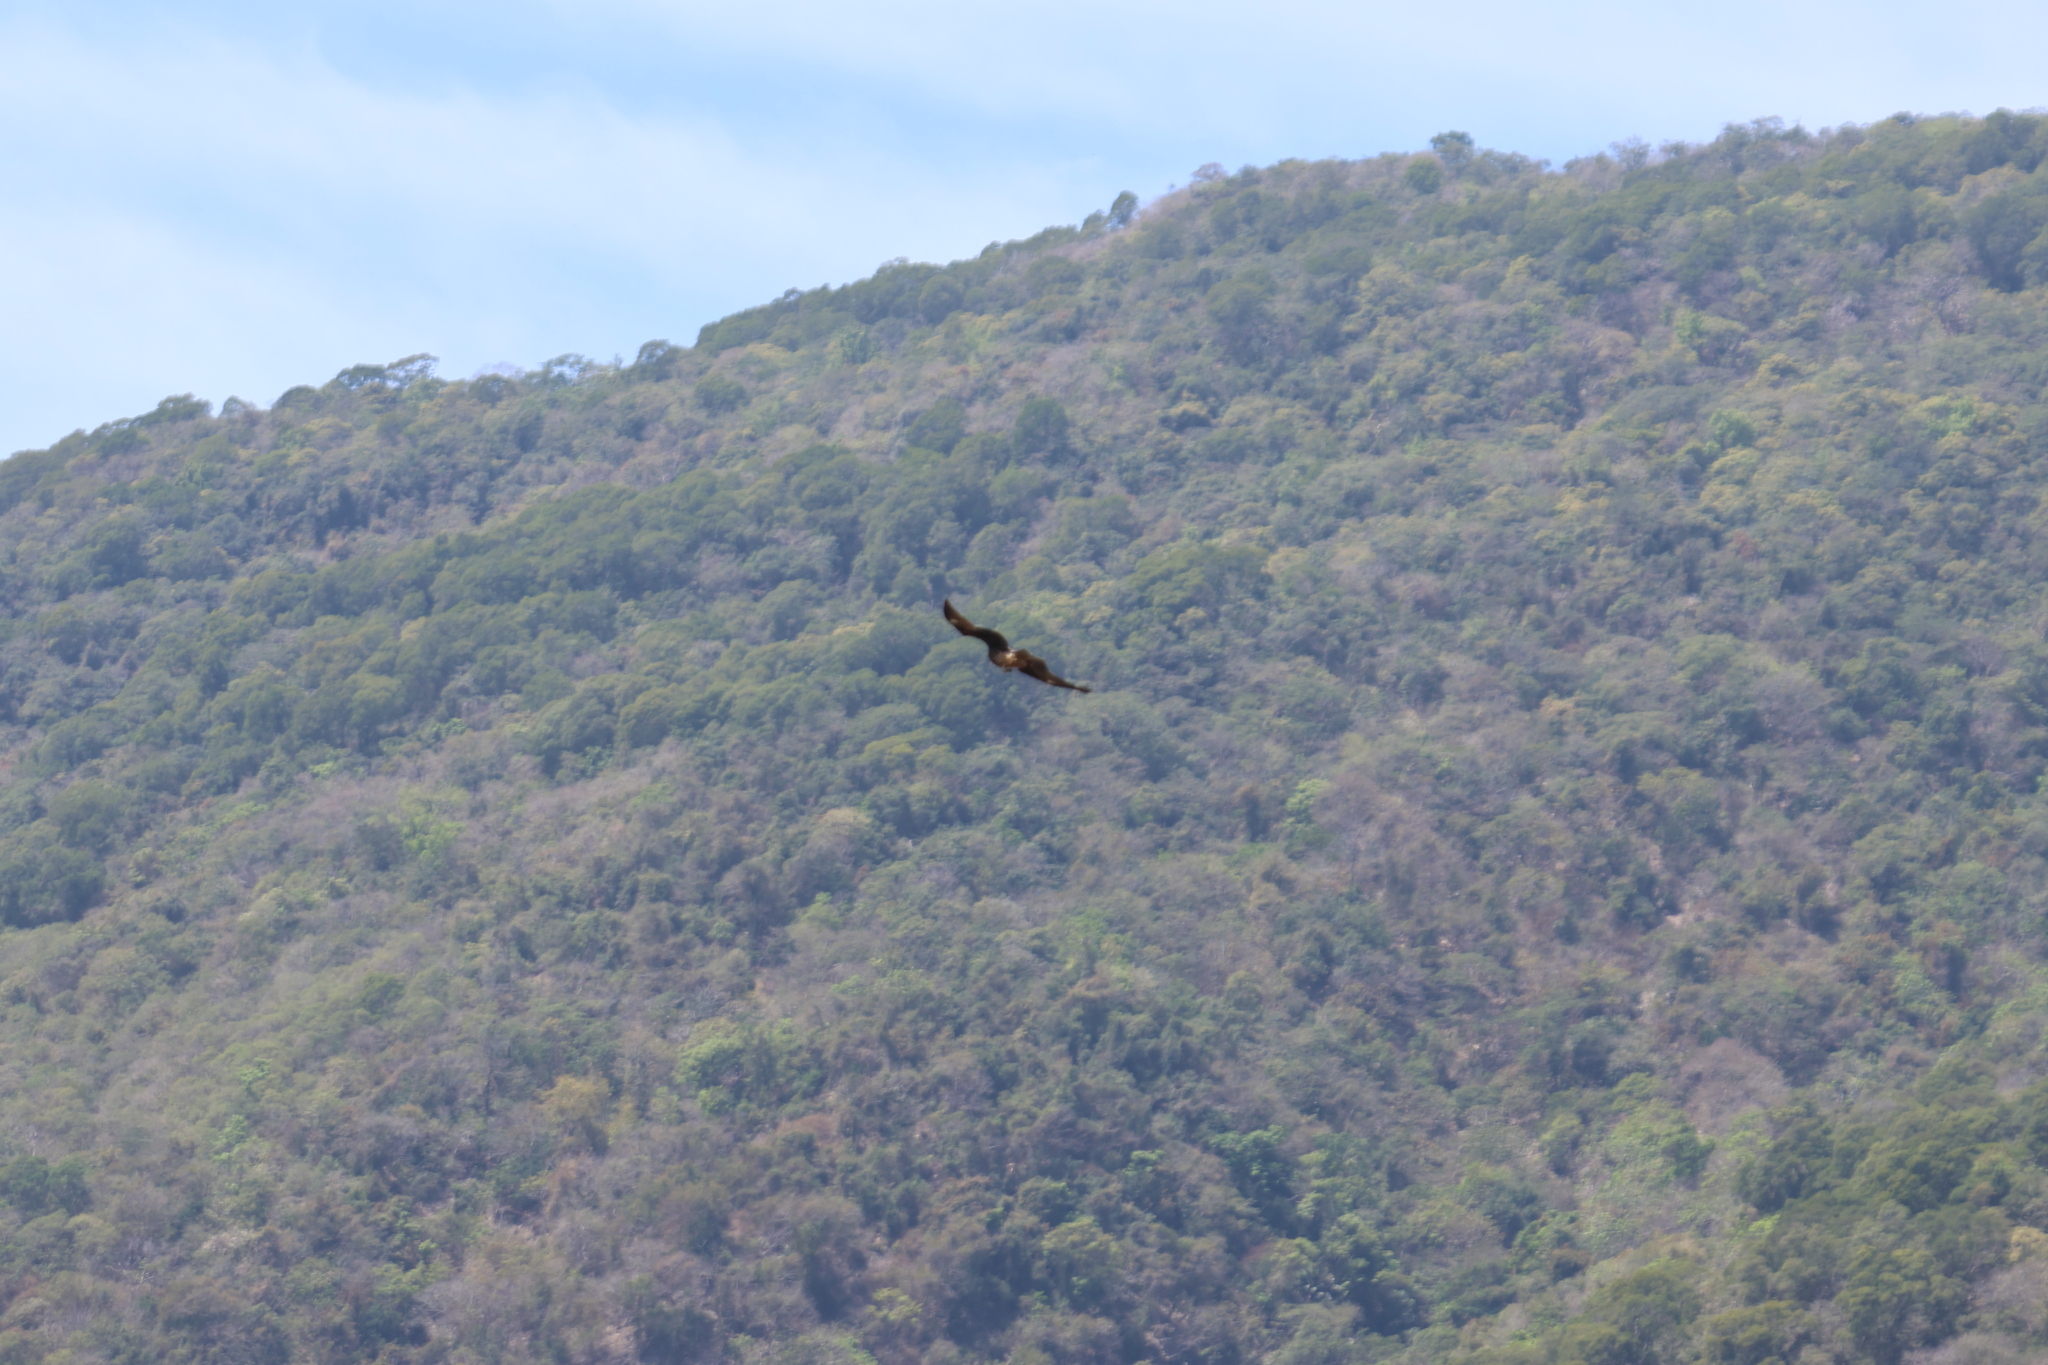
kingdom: Animalia
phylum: Chordata
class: Aves
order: Accipitriformes
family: Accipitridae
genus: Milvus
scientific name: Milvus migrans
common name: Black kite
